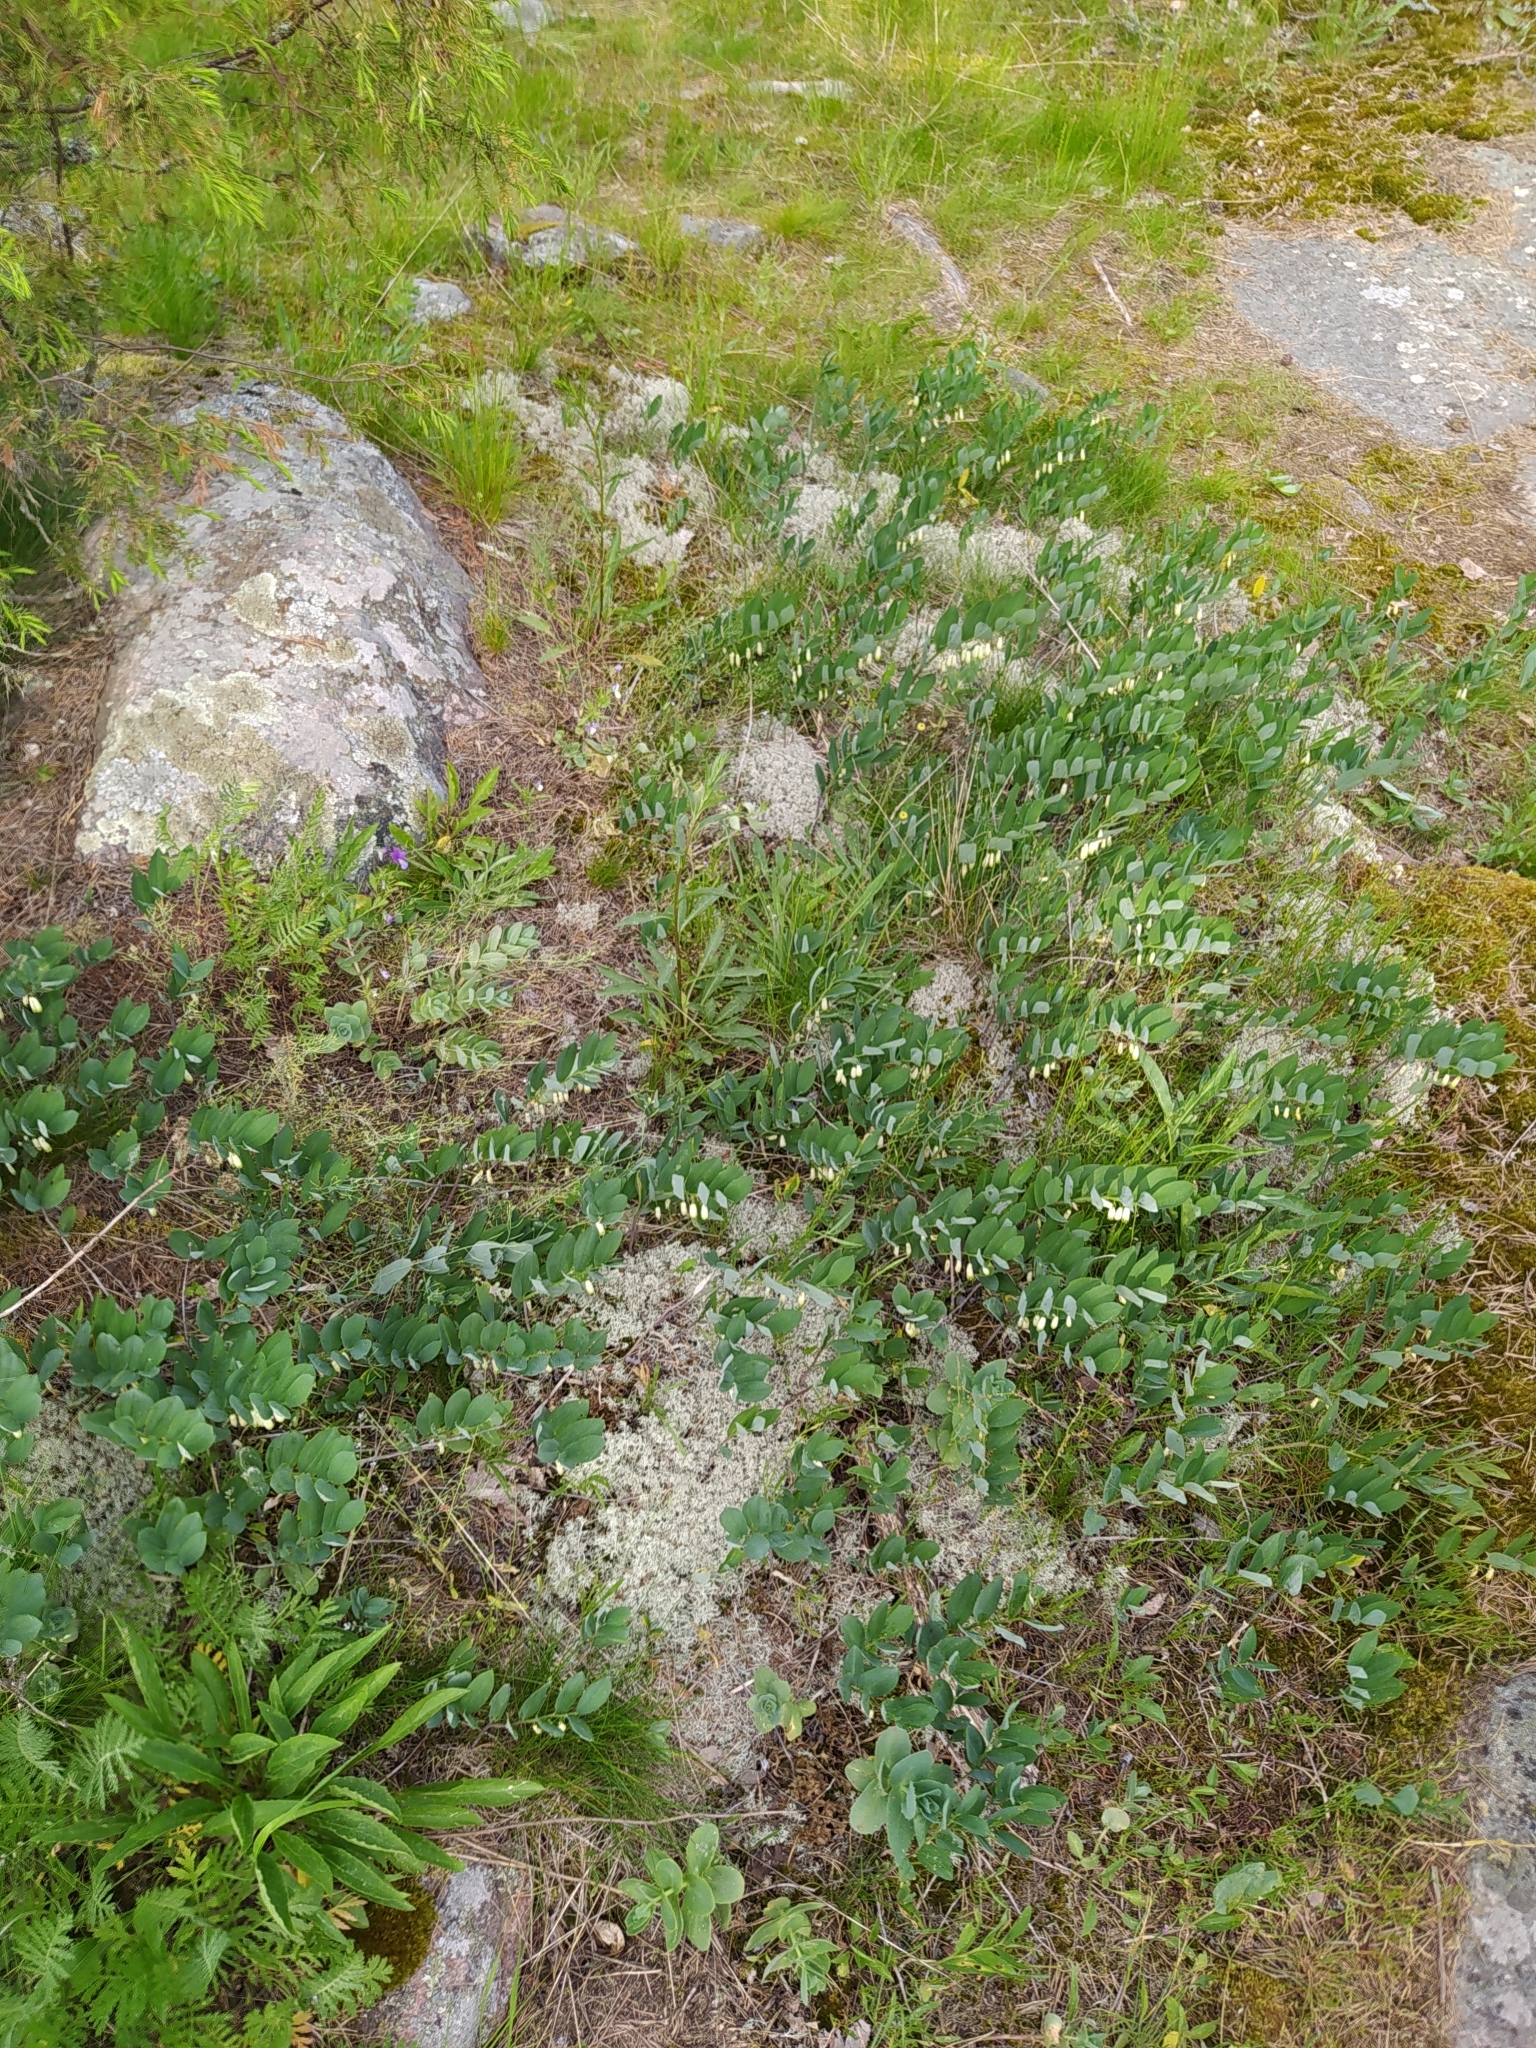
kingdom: Plantae
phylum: Tracheophyta
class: Liliopsida
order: Asparagales
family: Asparagaceae
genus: Polygonatum
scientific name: Polygonatum odoratum
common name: Angular solomon's-seal
